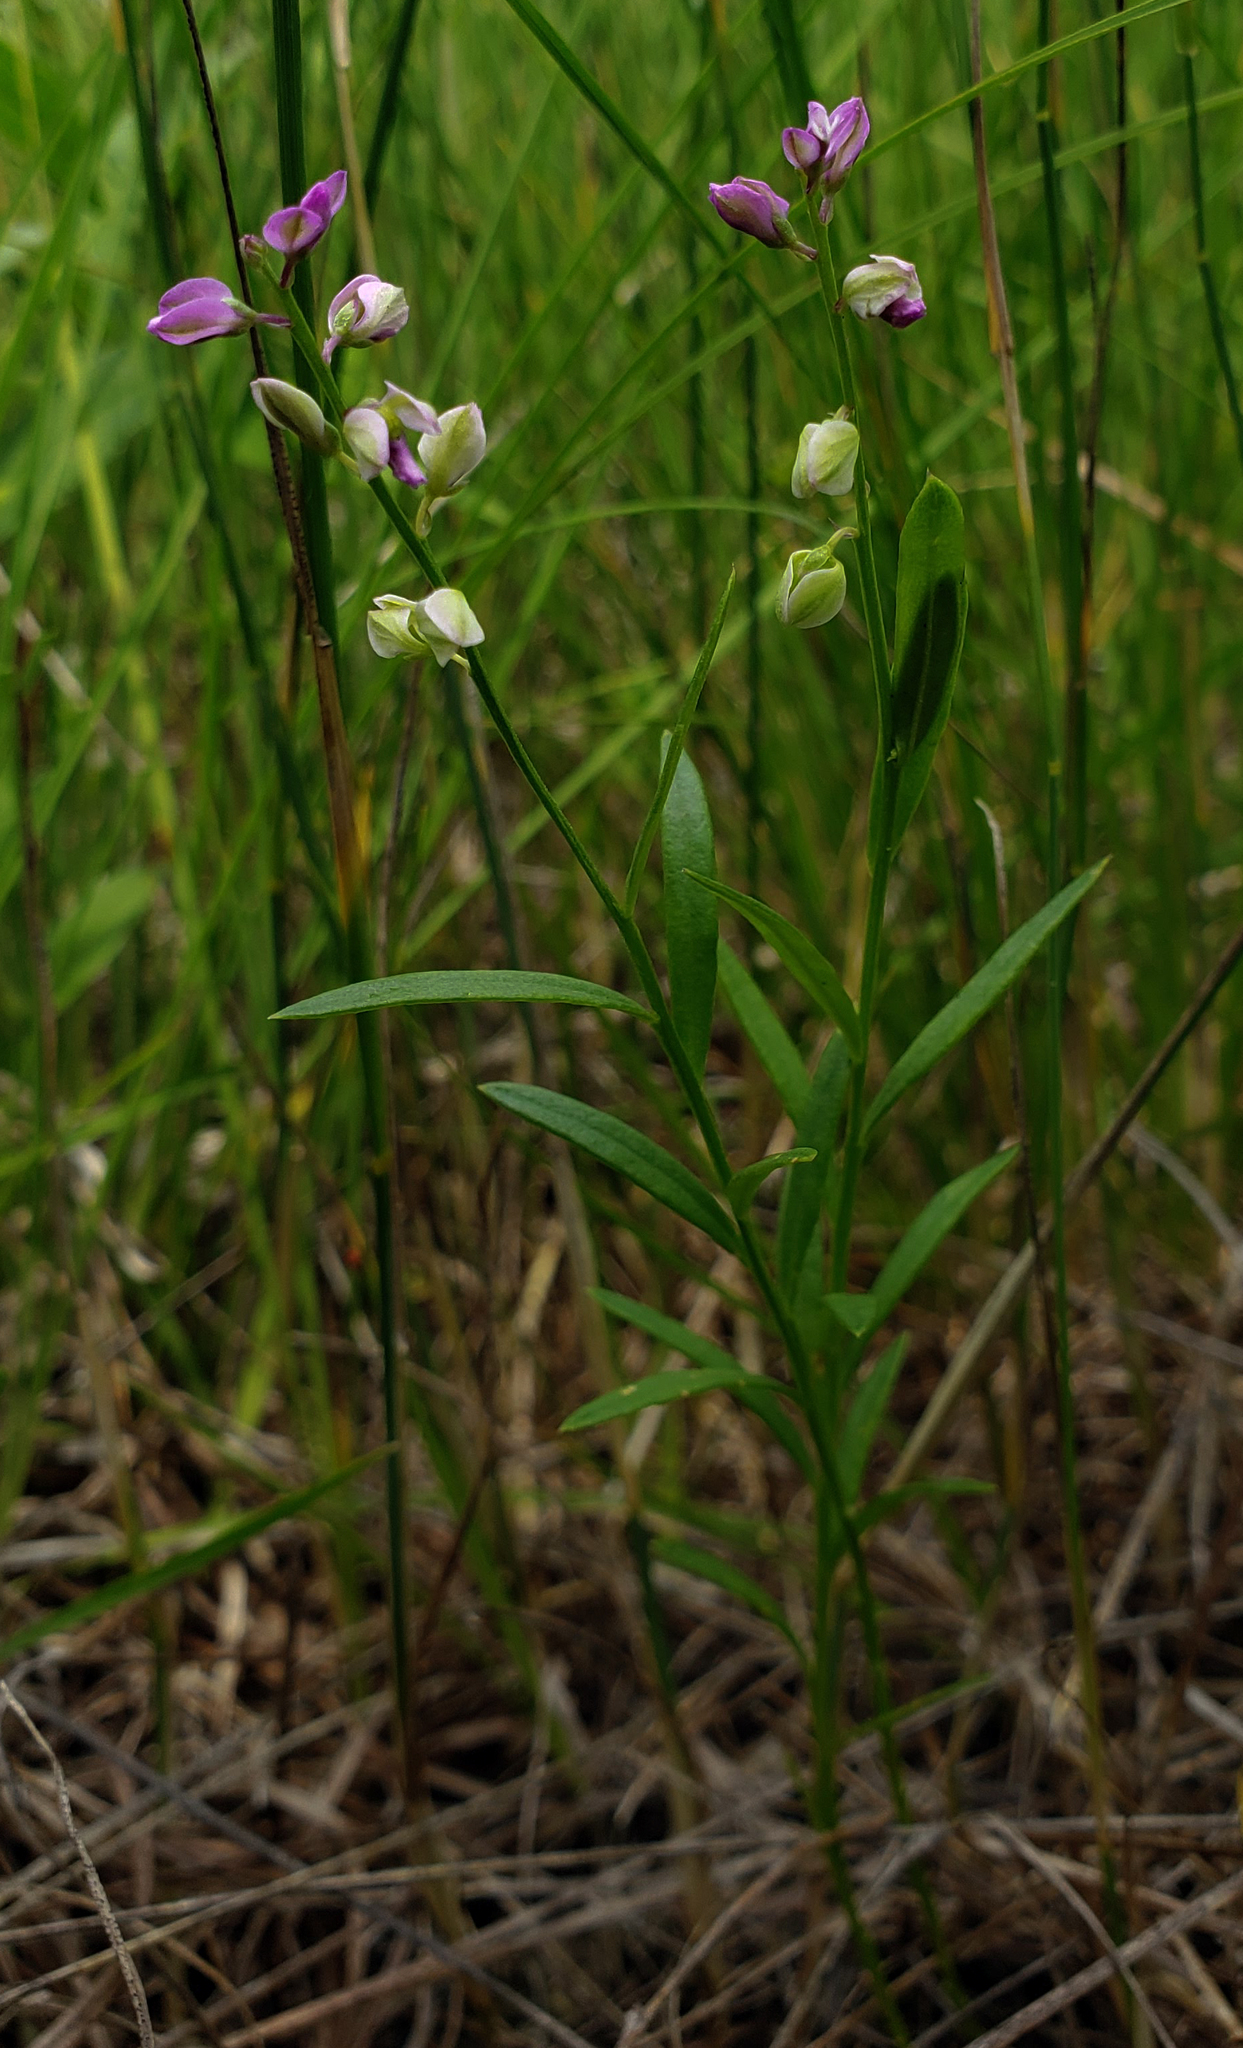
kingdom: Plantae
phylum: Tracheophyta
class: Magnoliopsida
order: Fabales
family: Polygalaceae
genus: Polygala
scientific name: Polygala polygama
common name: Bitter milkwort
